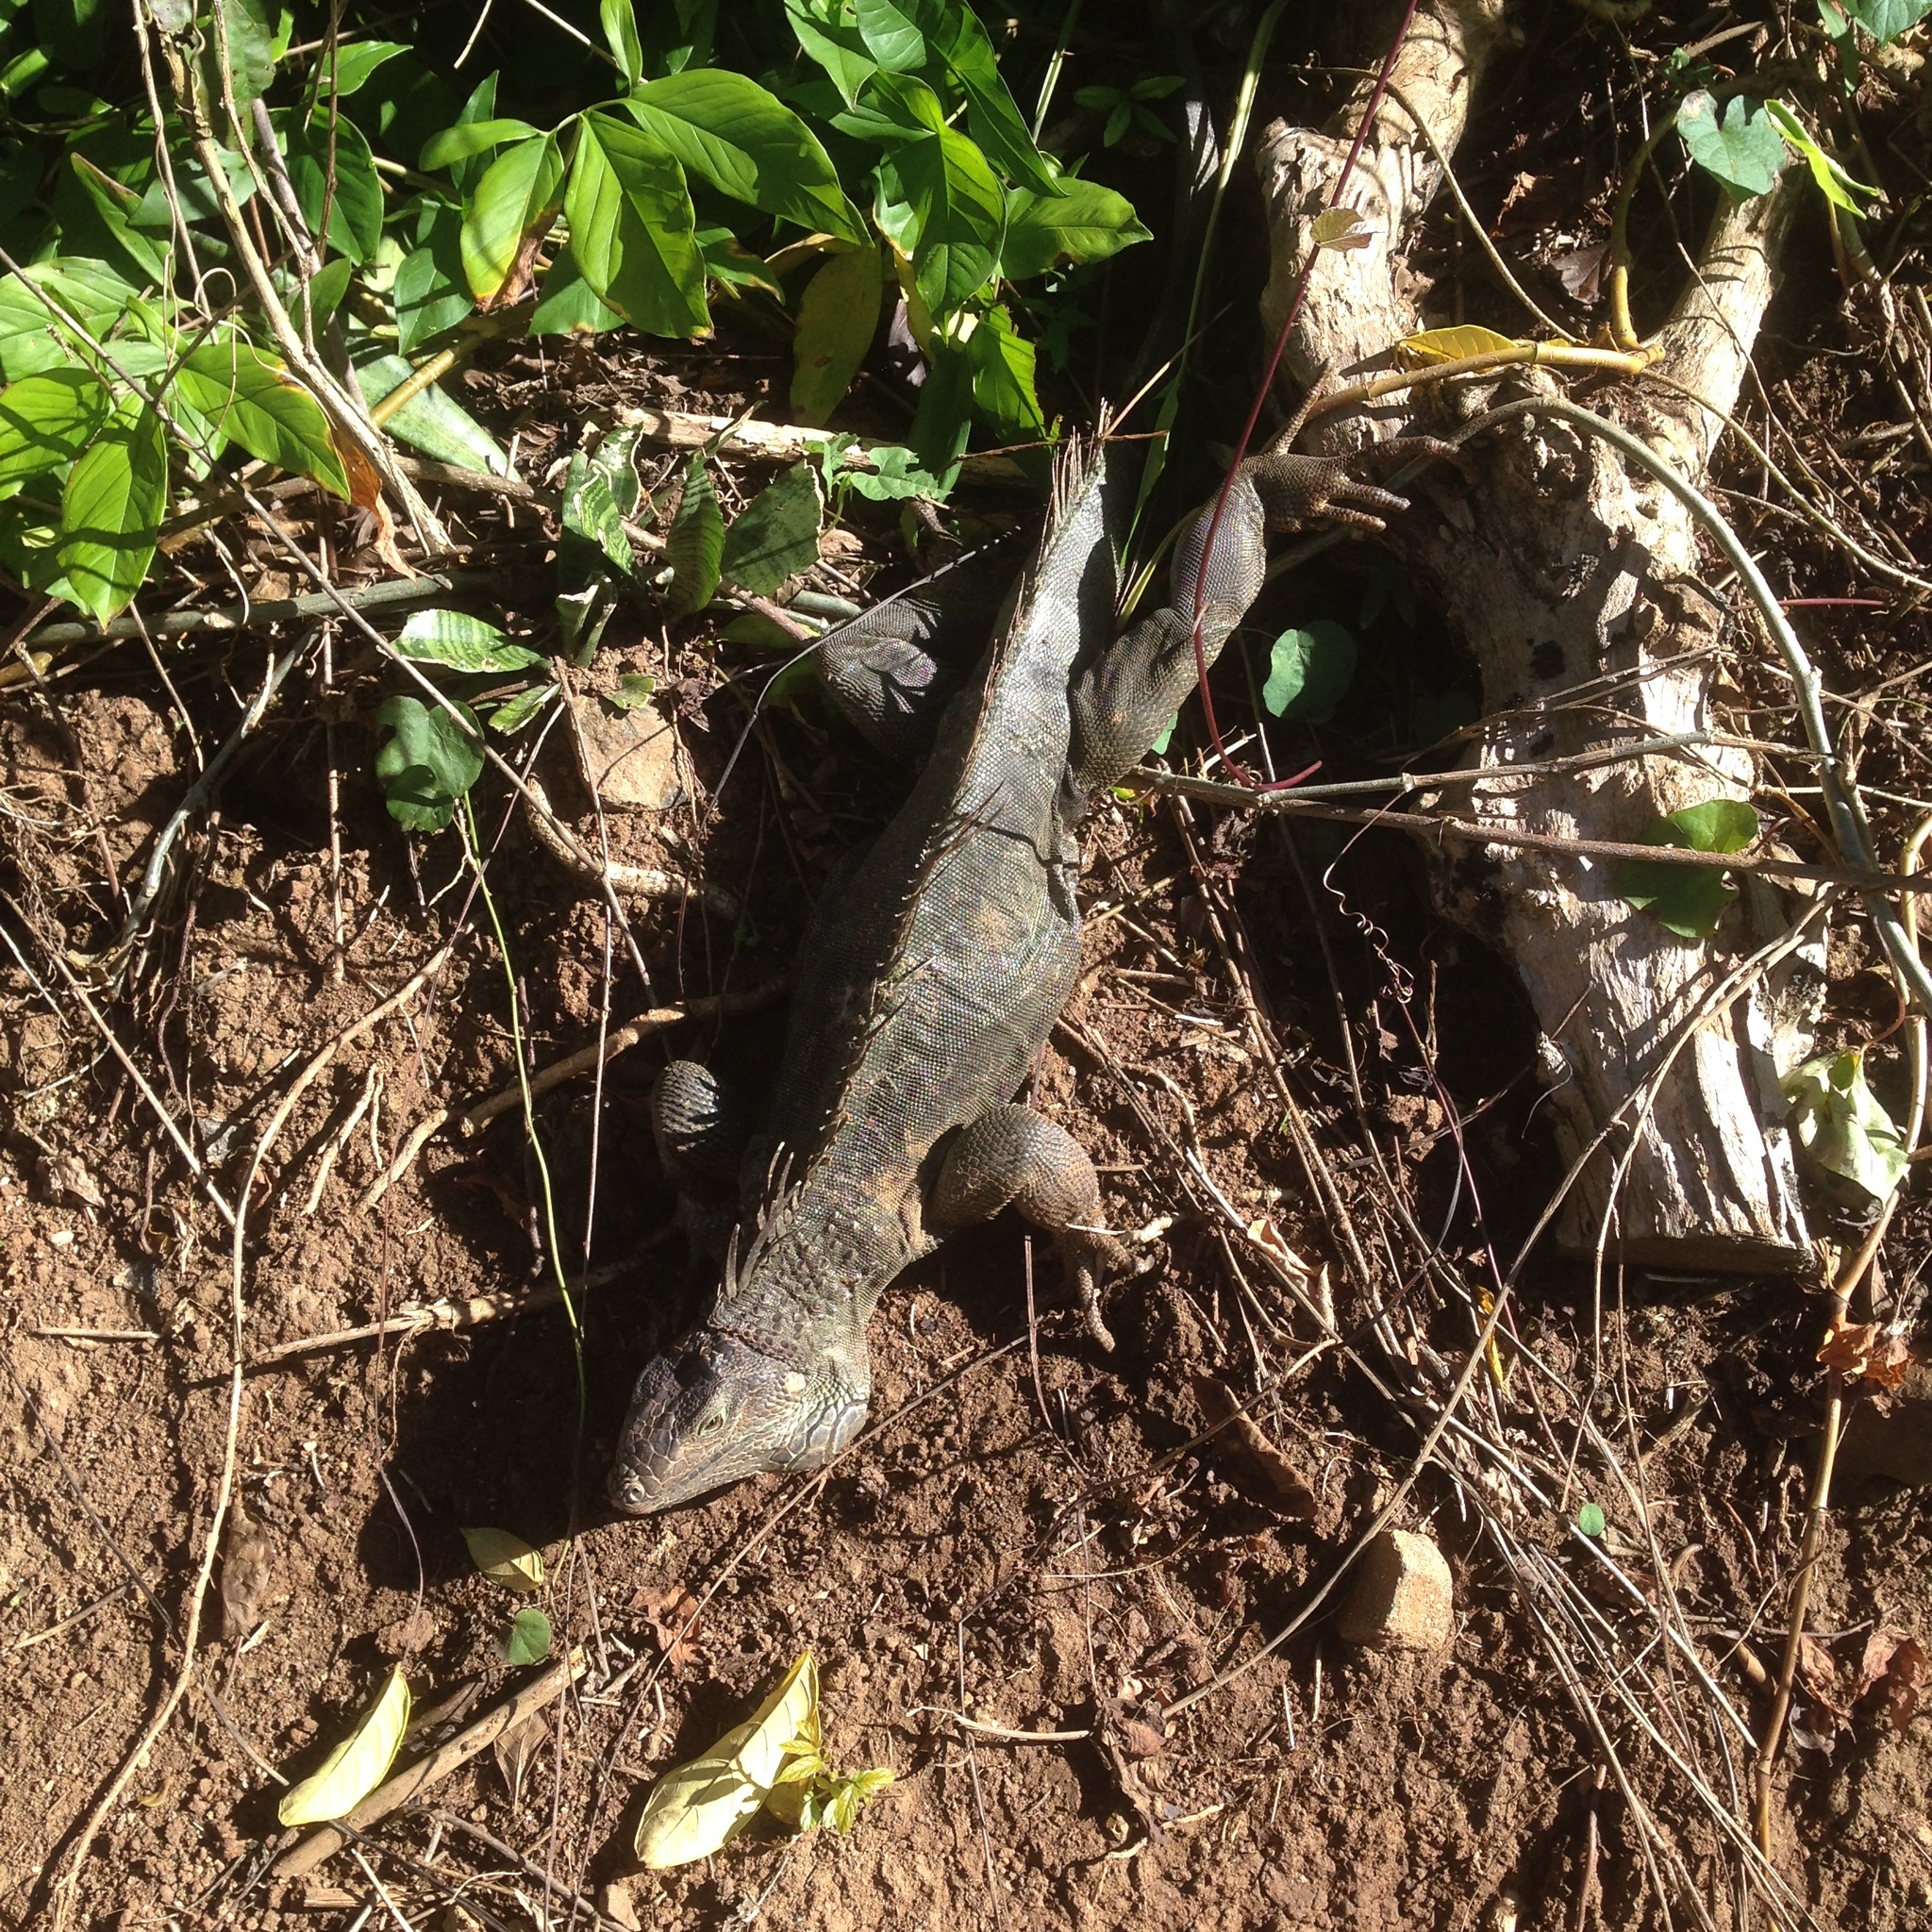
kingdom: Animalia
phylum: Chordata
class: Squamata
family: Iguanidae
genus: Iguana
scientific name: Iguana iguana
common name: Green iguana
